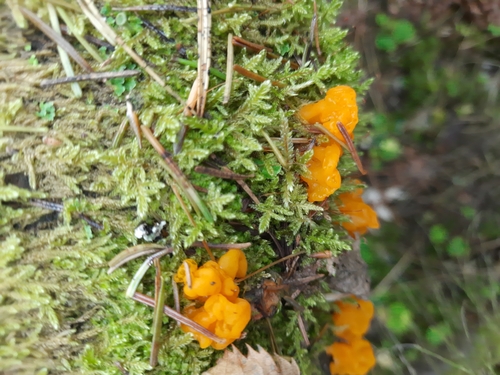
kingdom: Fungi
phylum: Basidiomycota
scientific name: Basidiomycota
